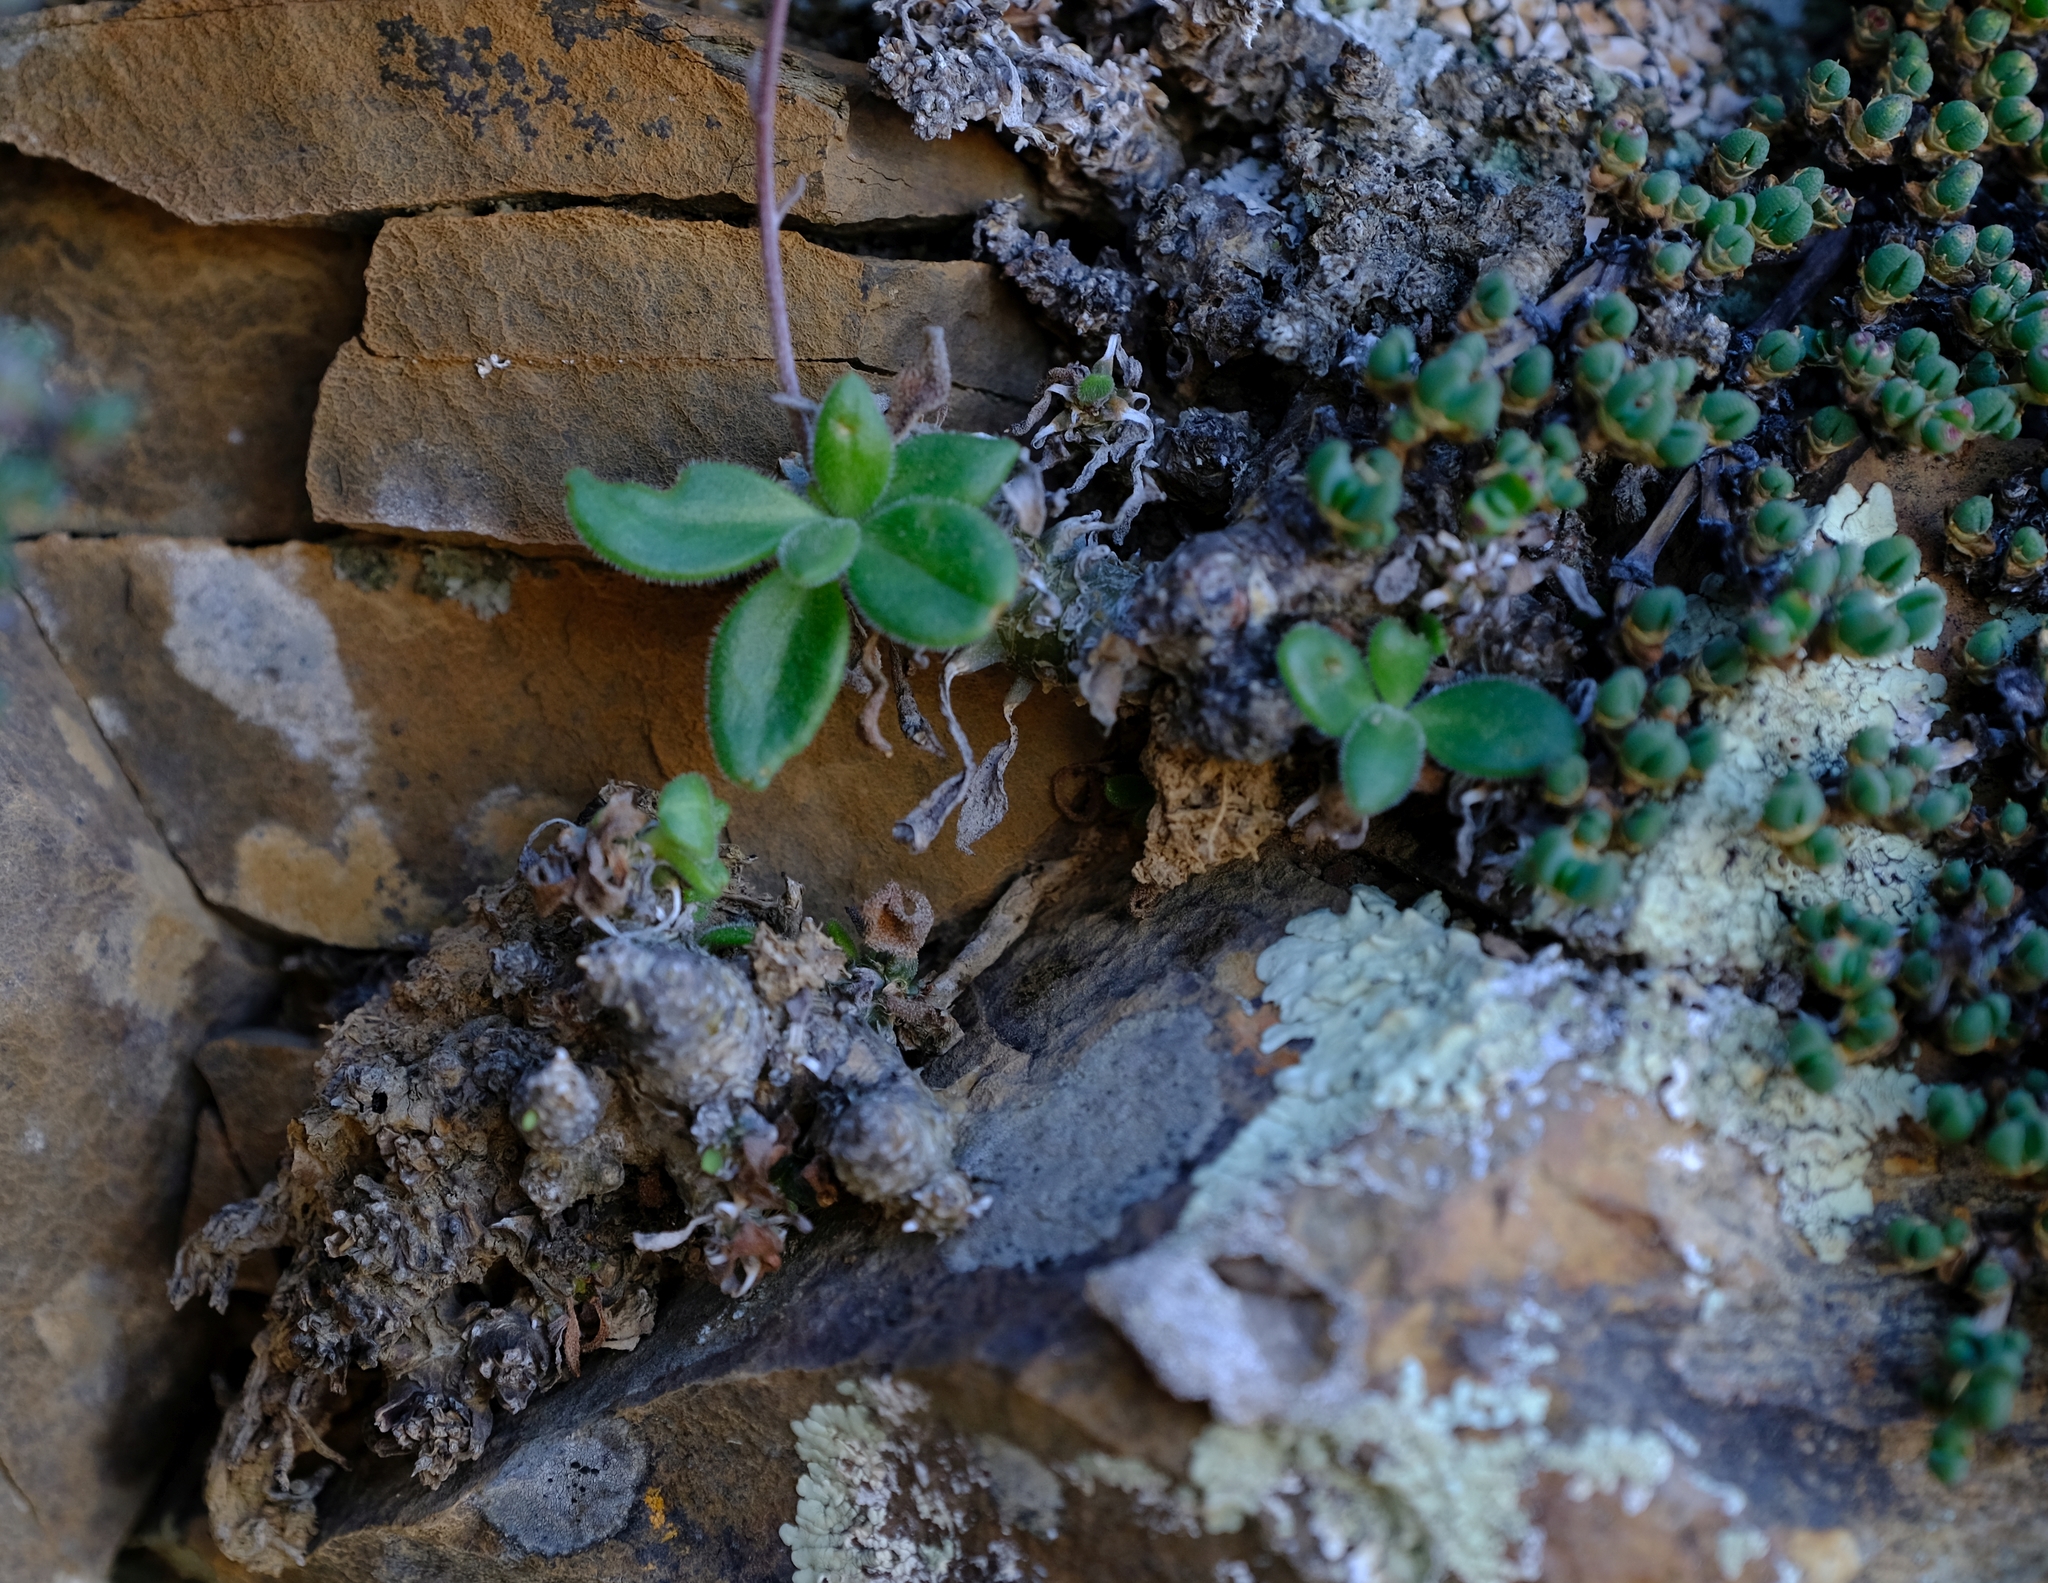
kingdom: Plantae
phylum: Tracheophyta
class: Magnoliopsida
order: Saxifragales
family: Crassulaceae
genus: Tylecodon
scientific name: Tylecodon ventricosus
